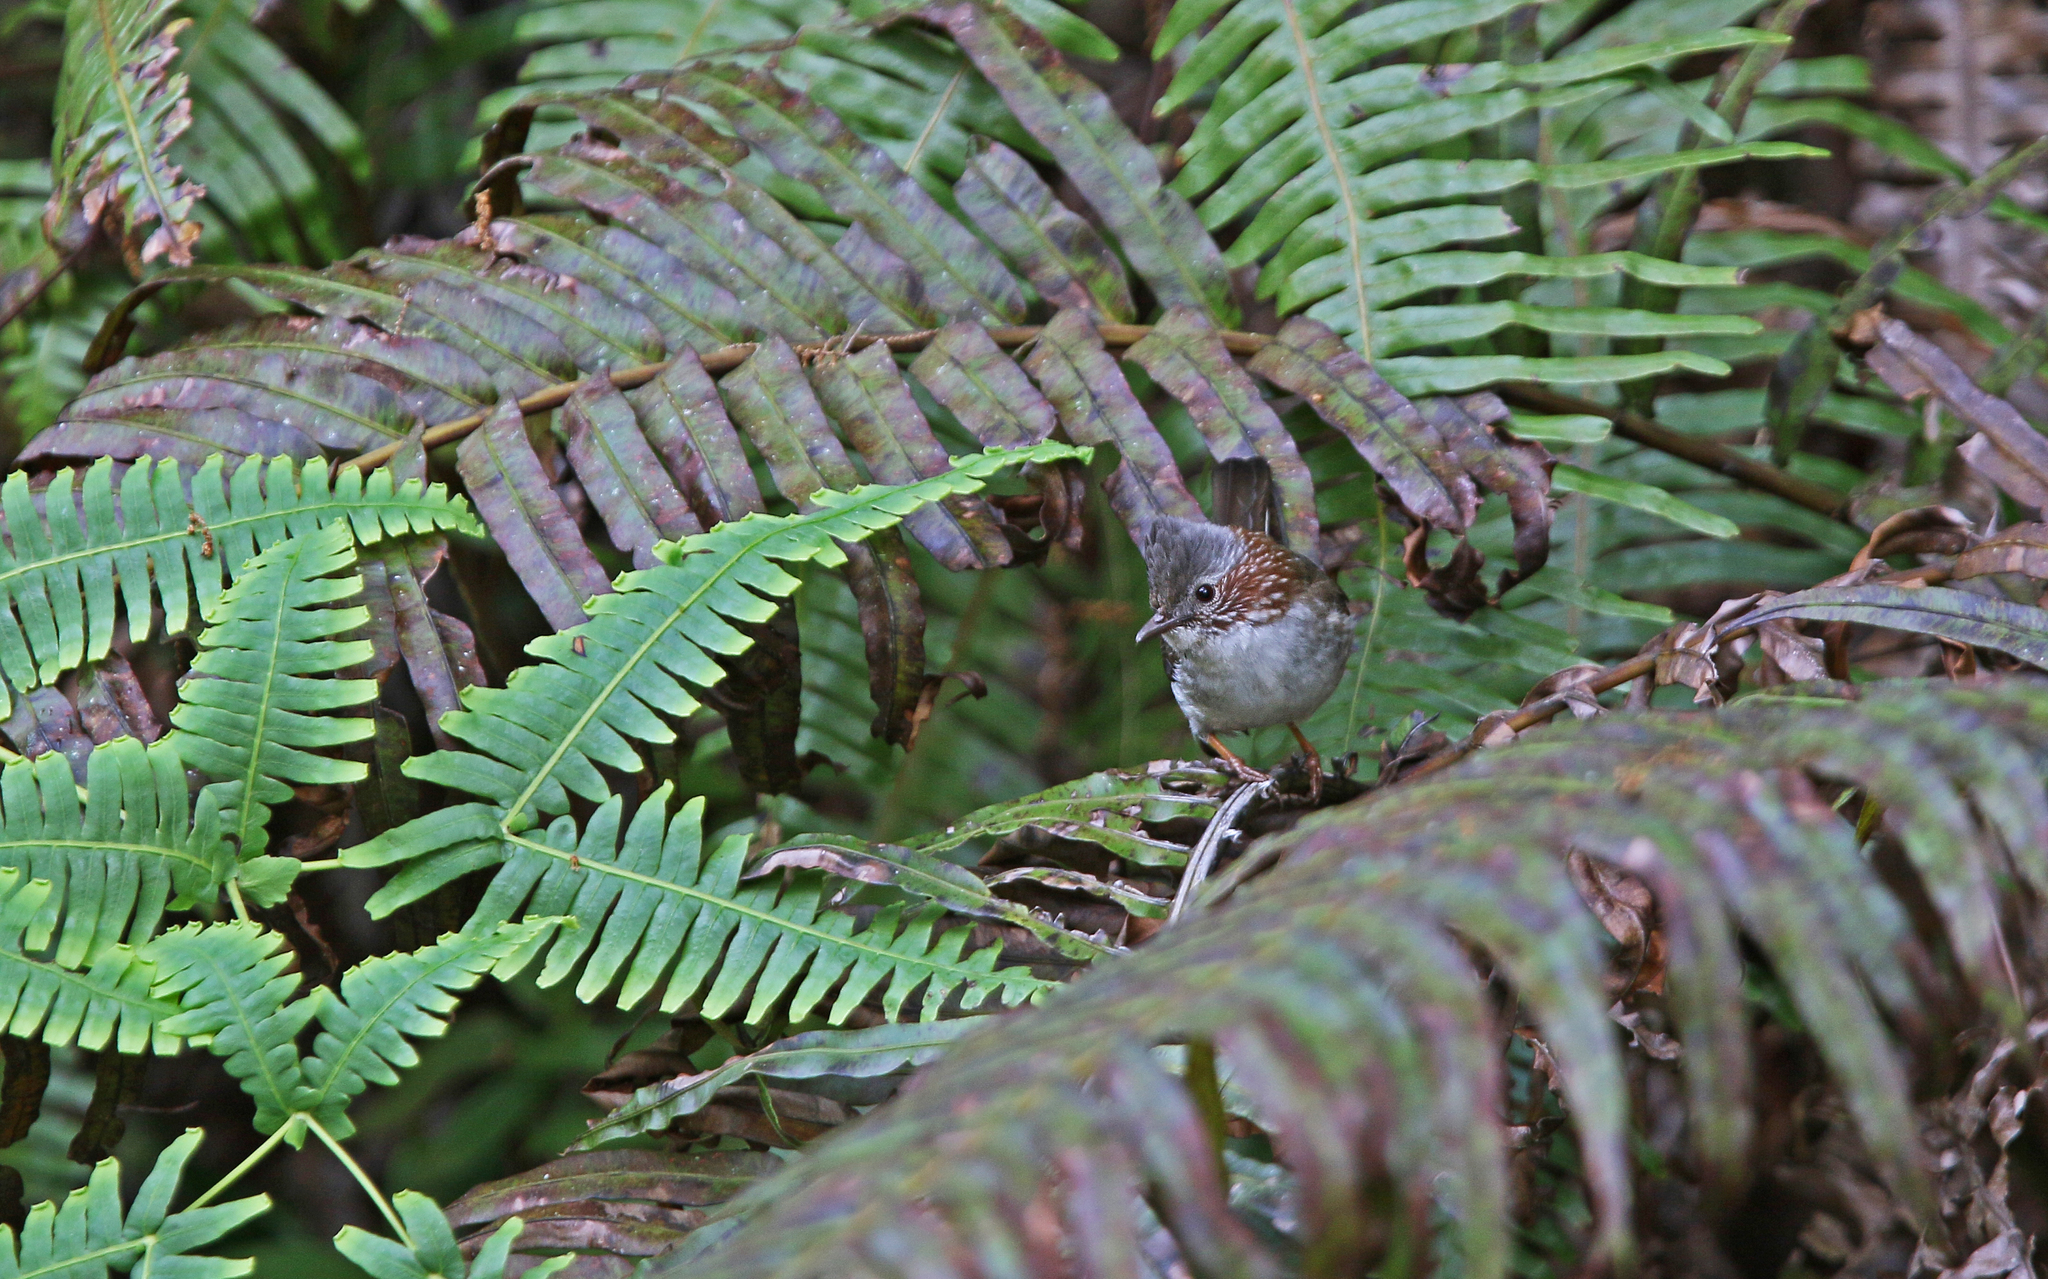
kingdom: Animalia
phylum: Chordata
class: Aves
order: Passeriformes
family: Zosteropidae
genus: Yuhina
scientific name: Yuhina torqueola
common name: Indochinese yuhina
